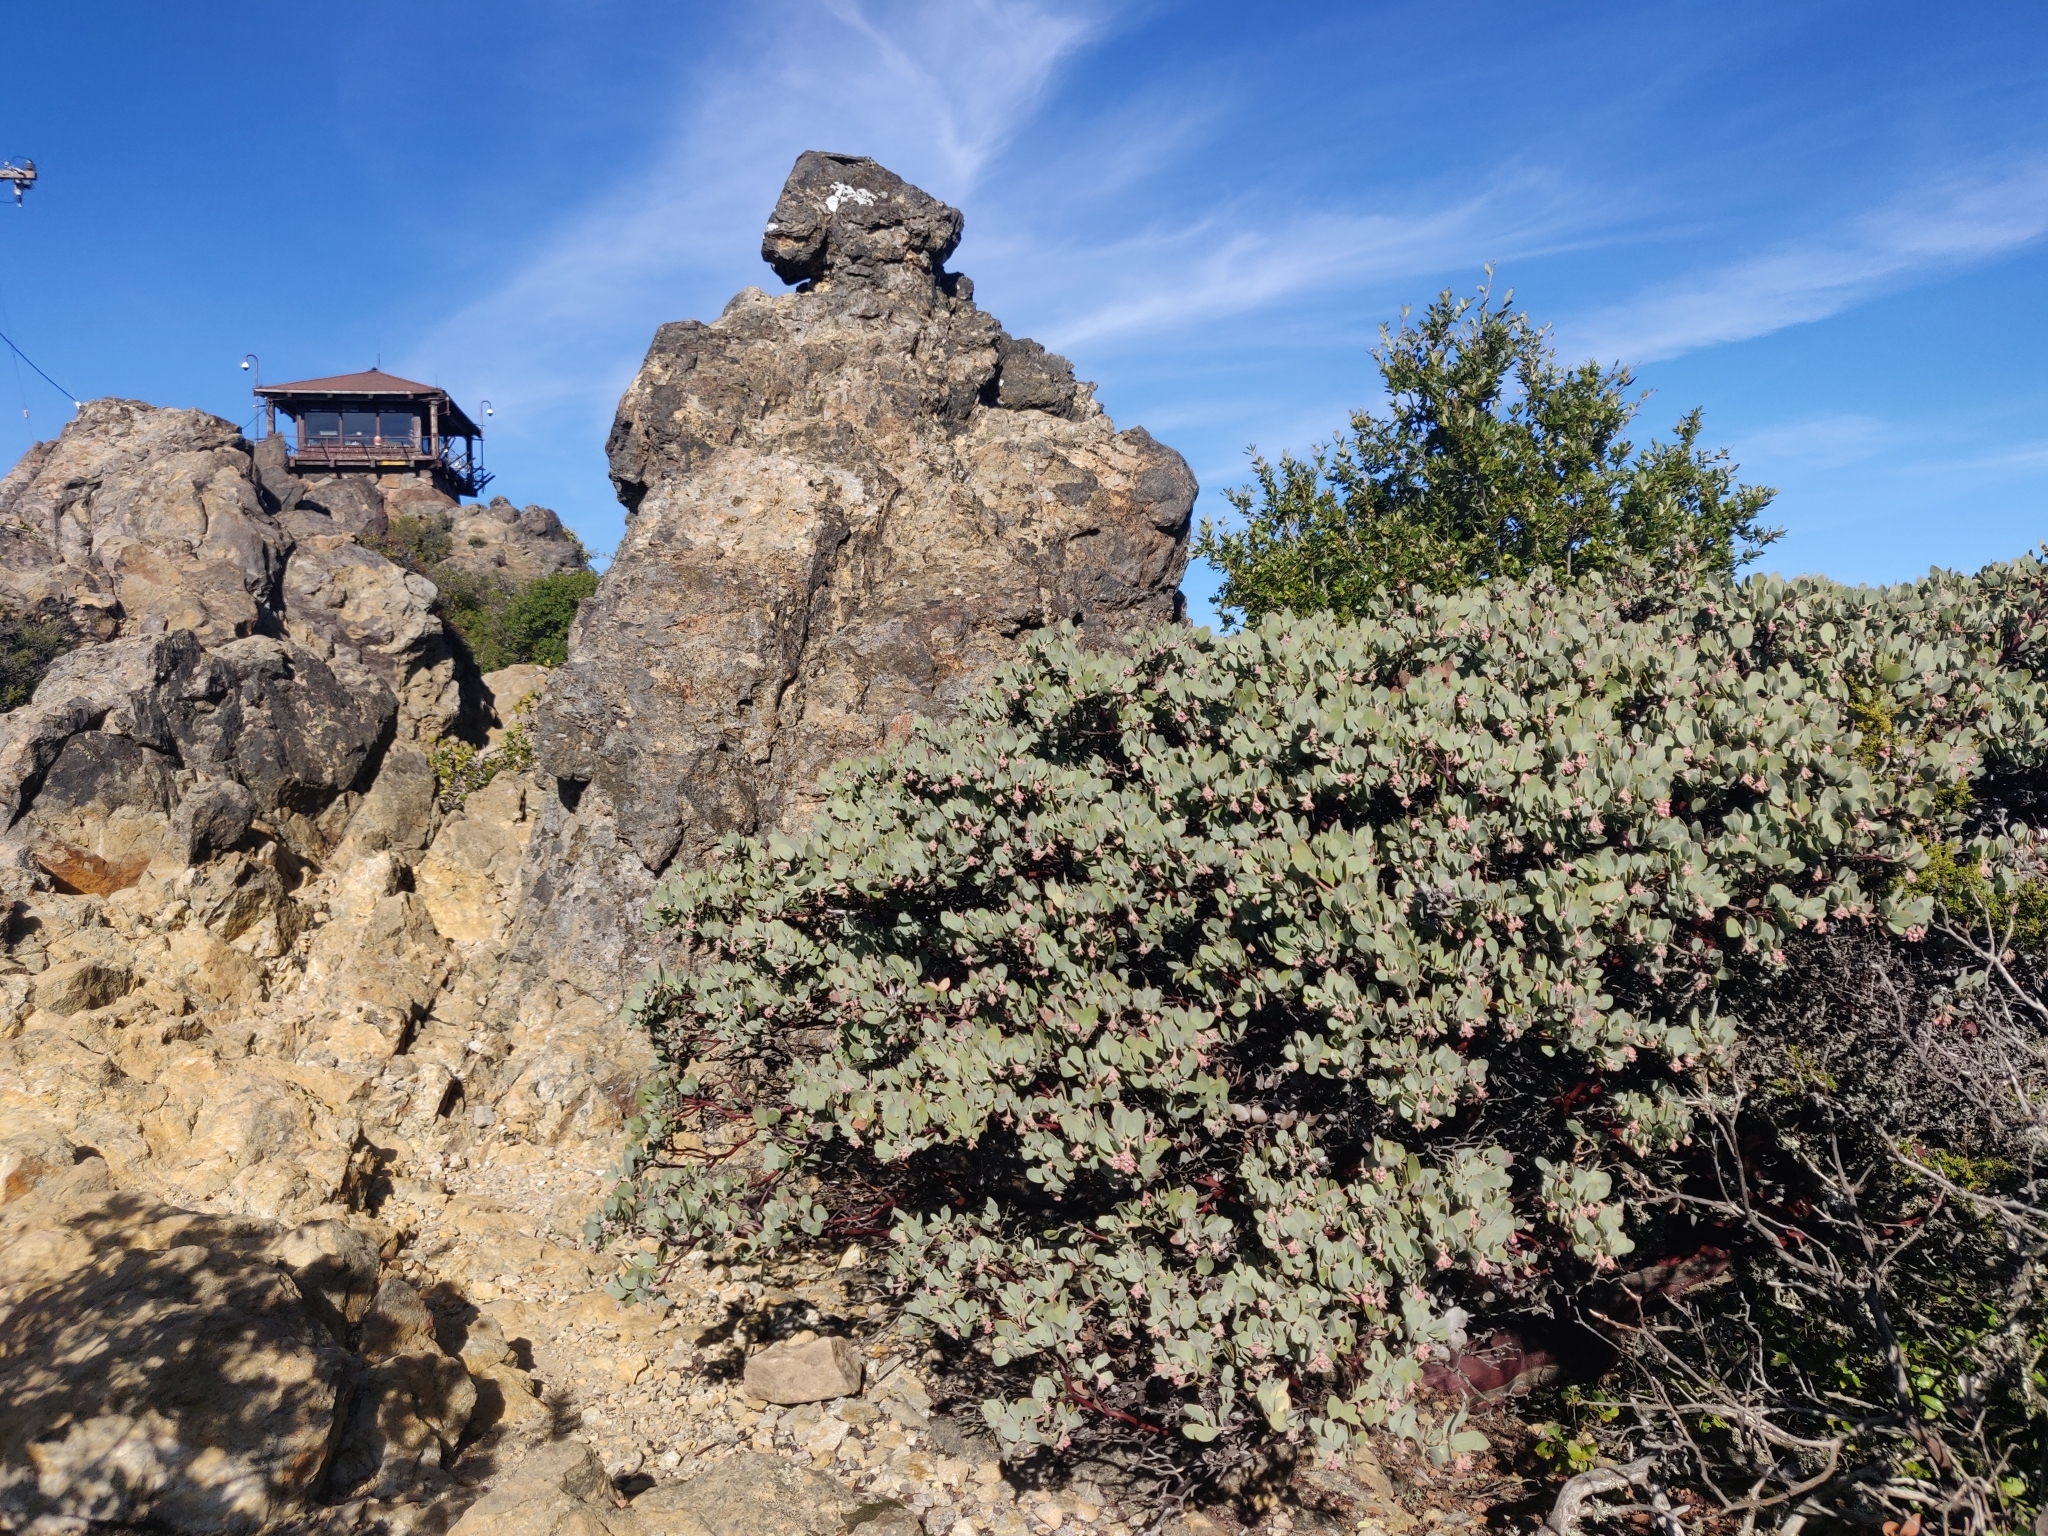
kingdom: Plantae
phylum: Tracheophyta
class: Magnoliopsida
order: Ericales
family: Ericaceae
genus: Arctostaphylos
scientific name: Arctostaphylos canescens
